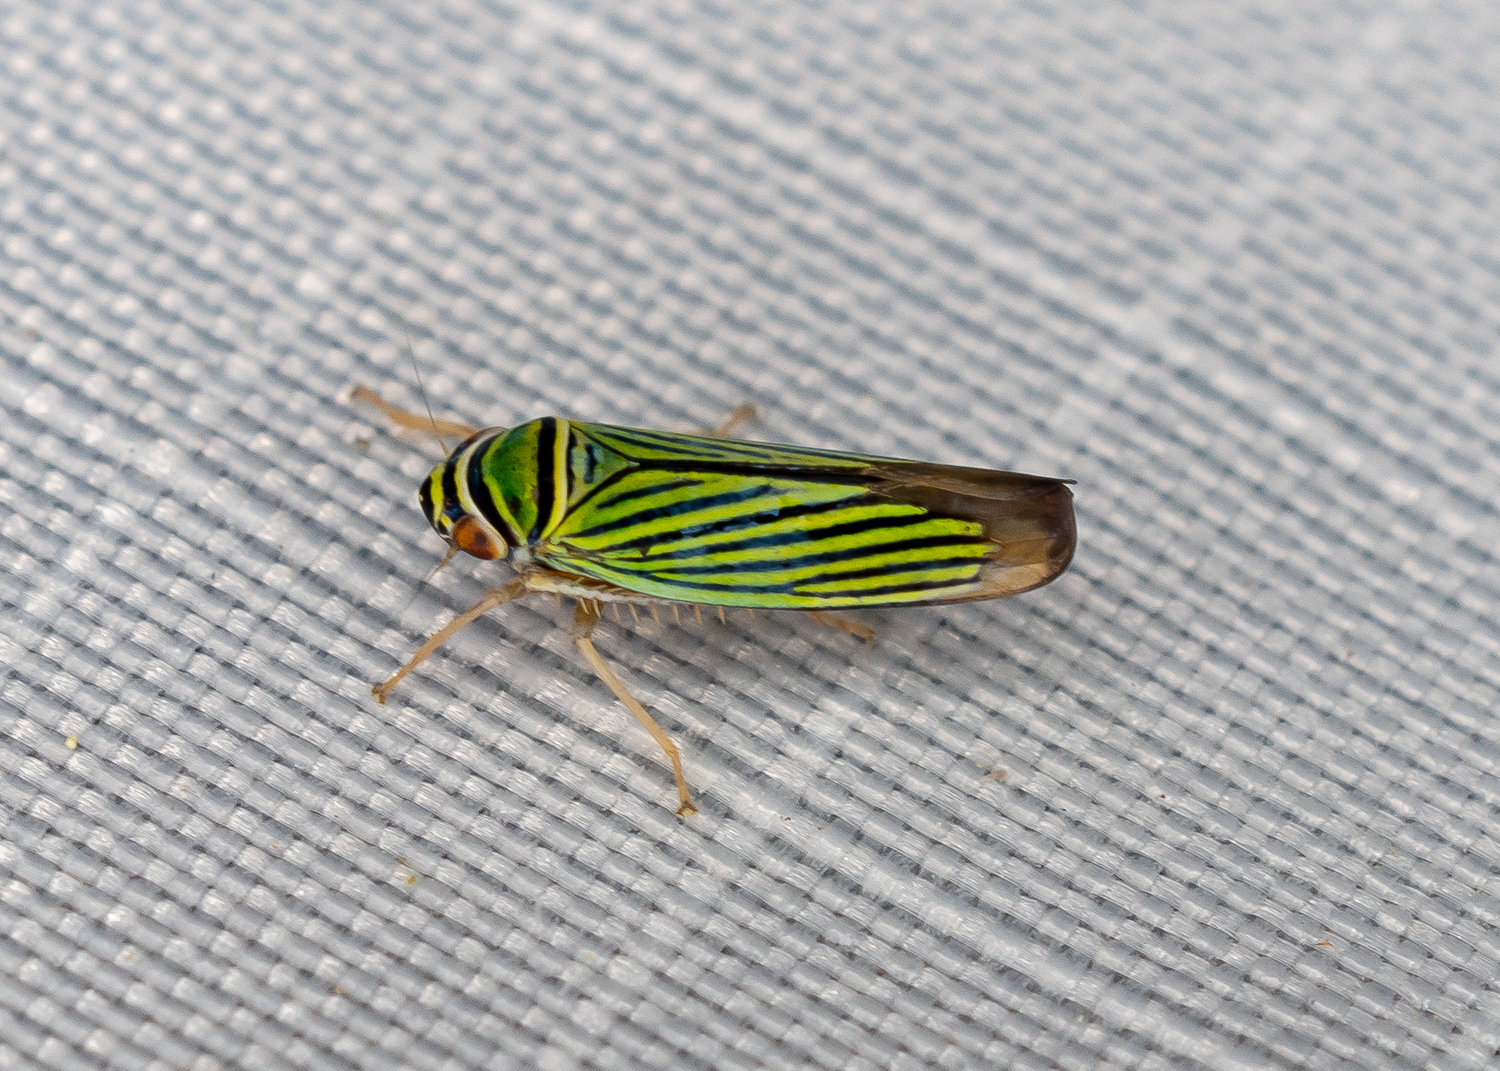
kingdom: Animalia
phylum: Arthropoda
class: Insecta
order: Hemiptera
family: Cicadellidae
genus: Tylozygus
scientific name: Tylozygus bifidus
